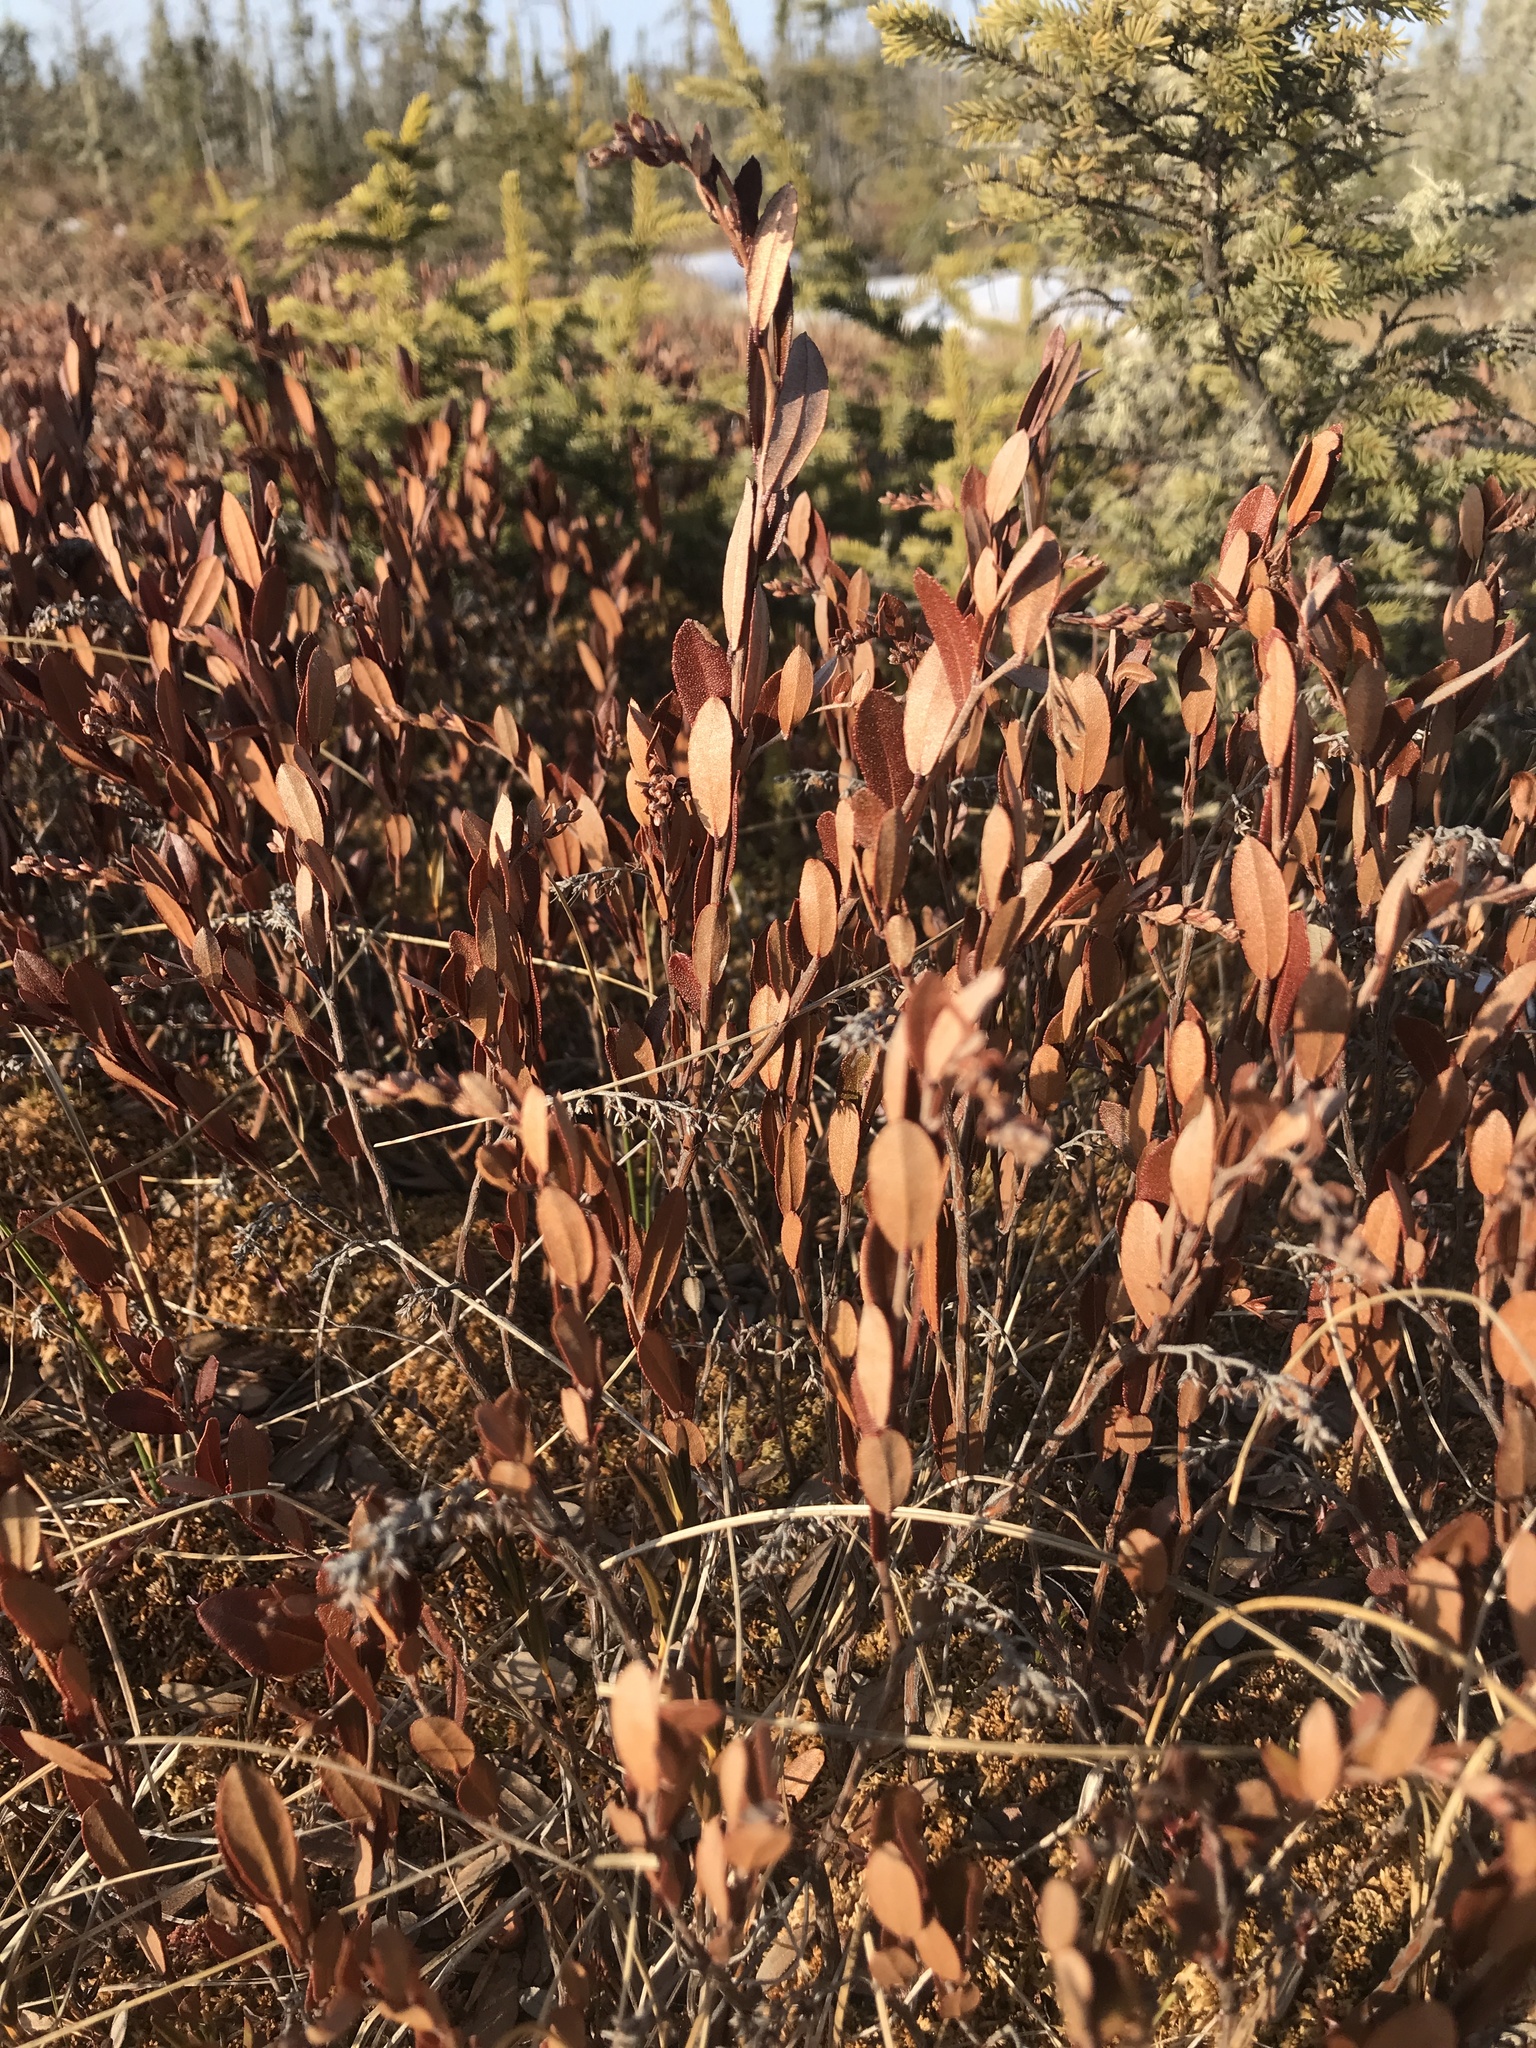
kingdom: Plantae
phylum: Tracheophyta
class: Magnoliopsida
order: Ericales
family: Ericaceae
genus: Chamaedaphne
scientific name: Chamaedaphne calyculata
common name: Leatherleaf
